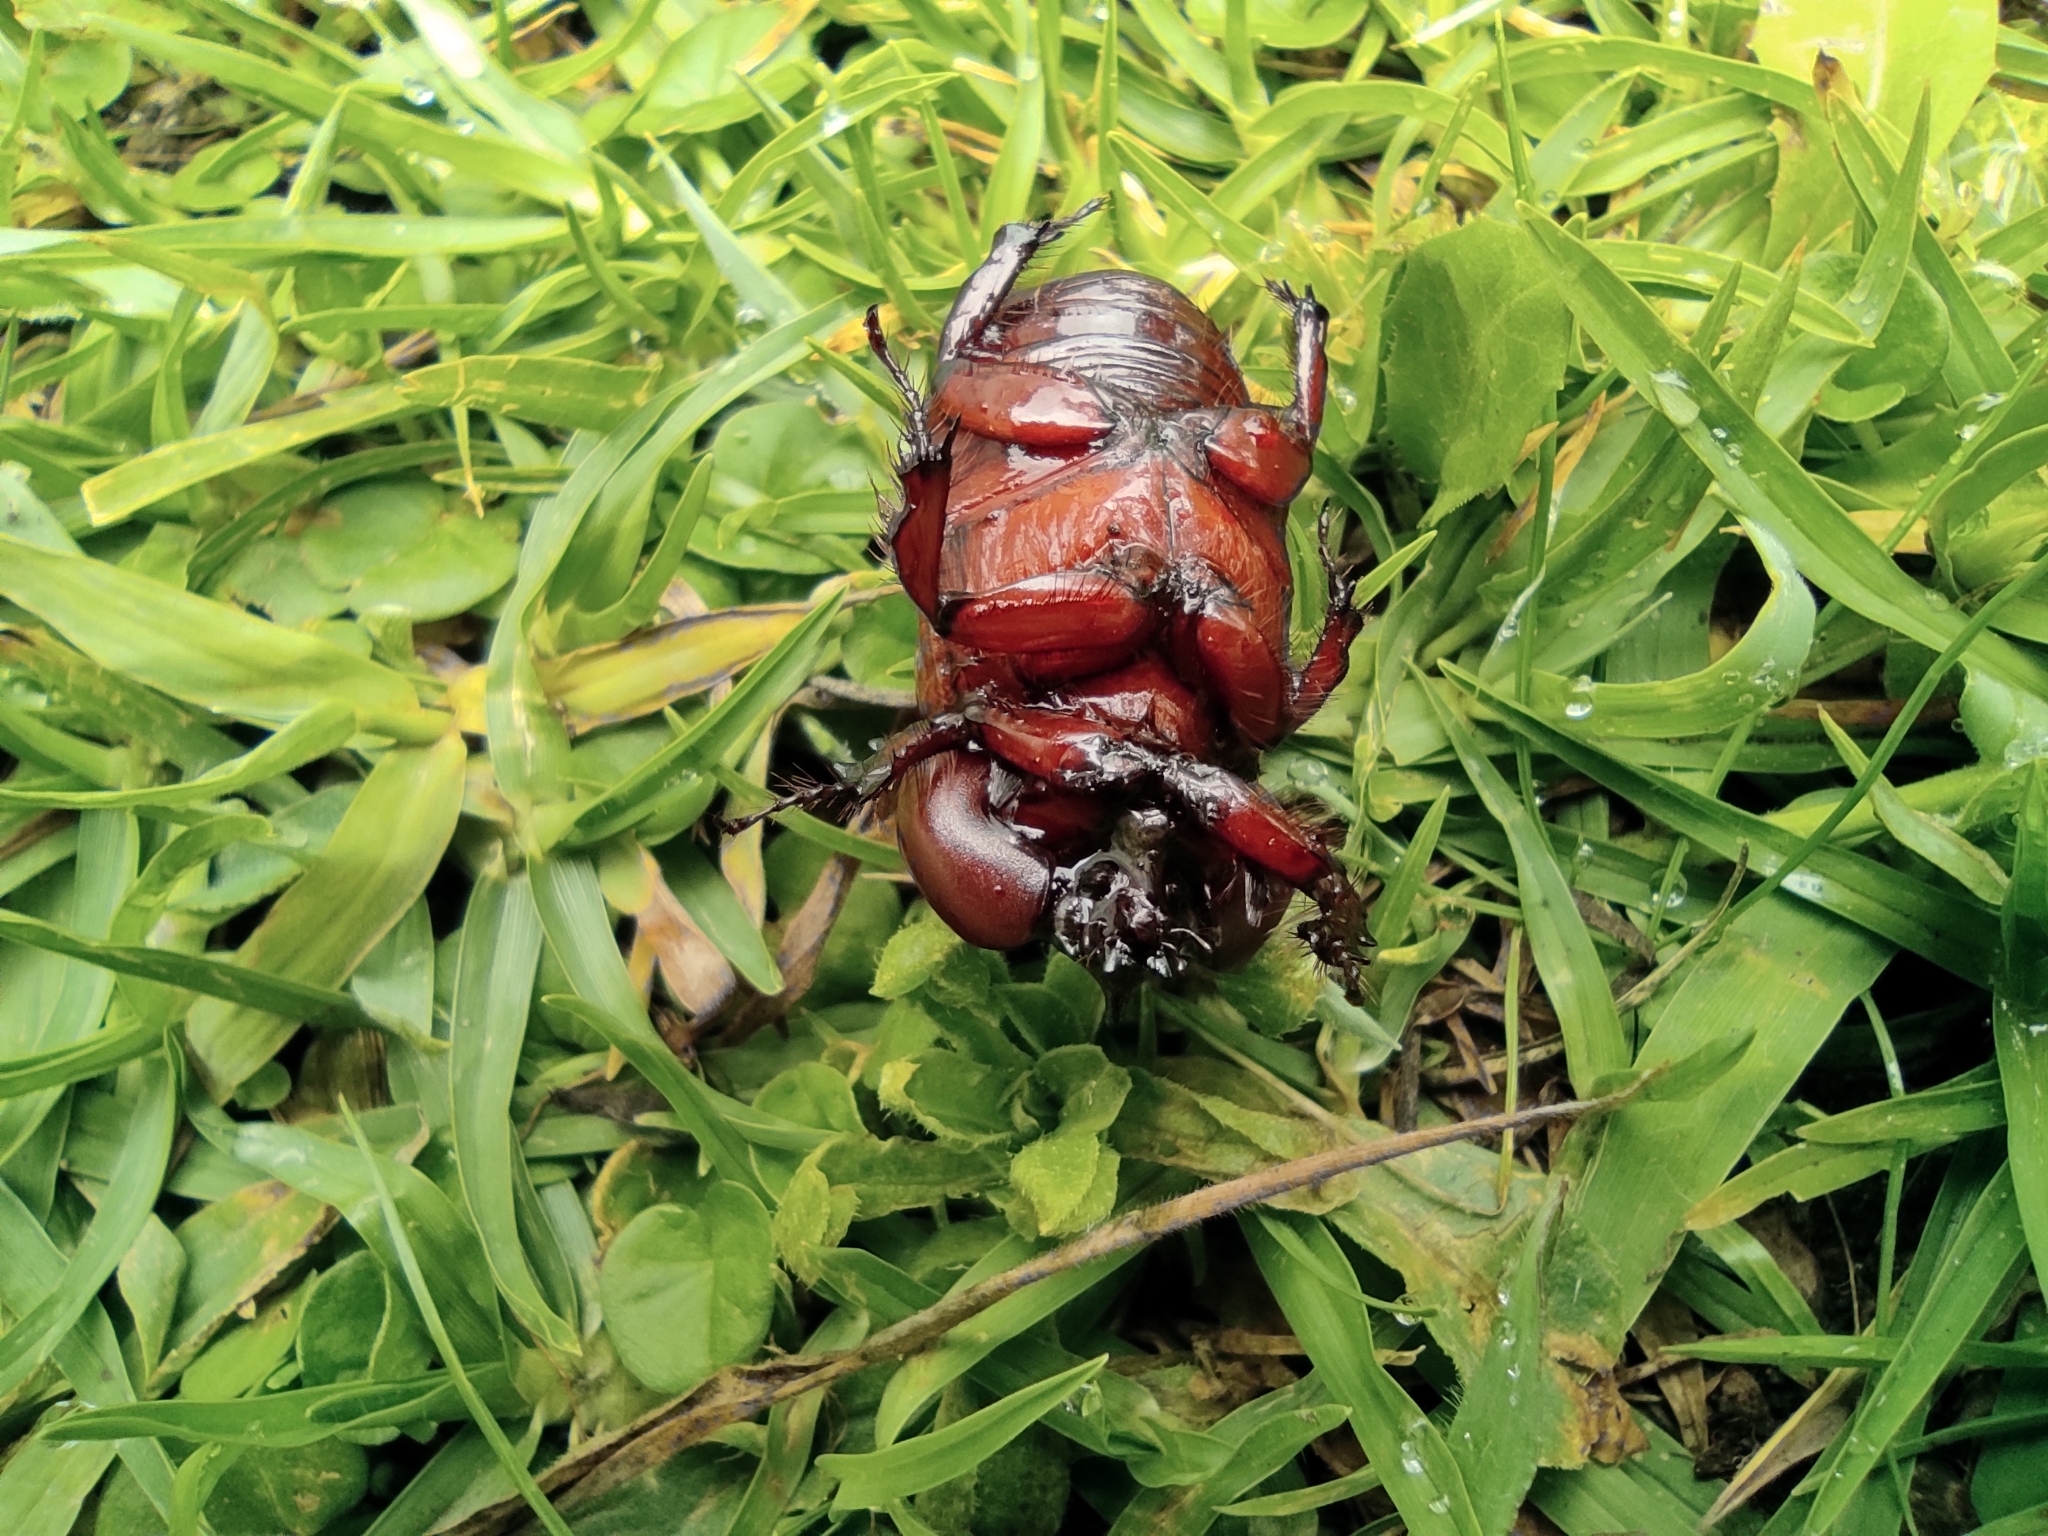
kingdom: Animalia
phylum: Arthropoda
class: Insecta
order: Coleoptera
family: Scarabaeidae
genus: Heterogomphus
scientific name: Heterogomphus bourcieri
